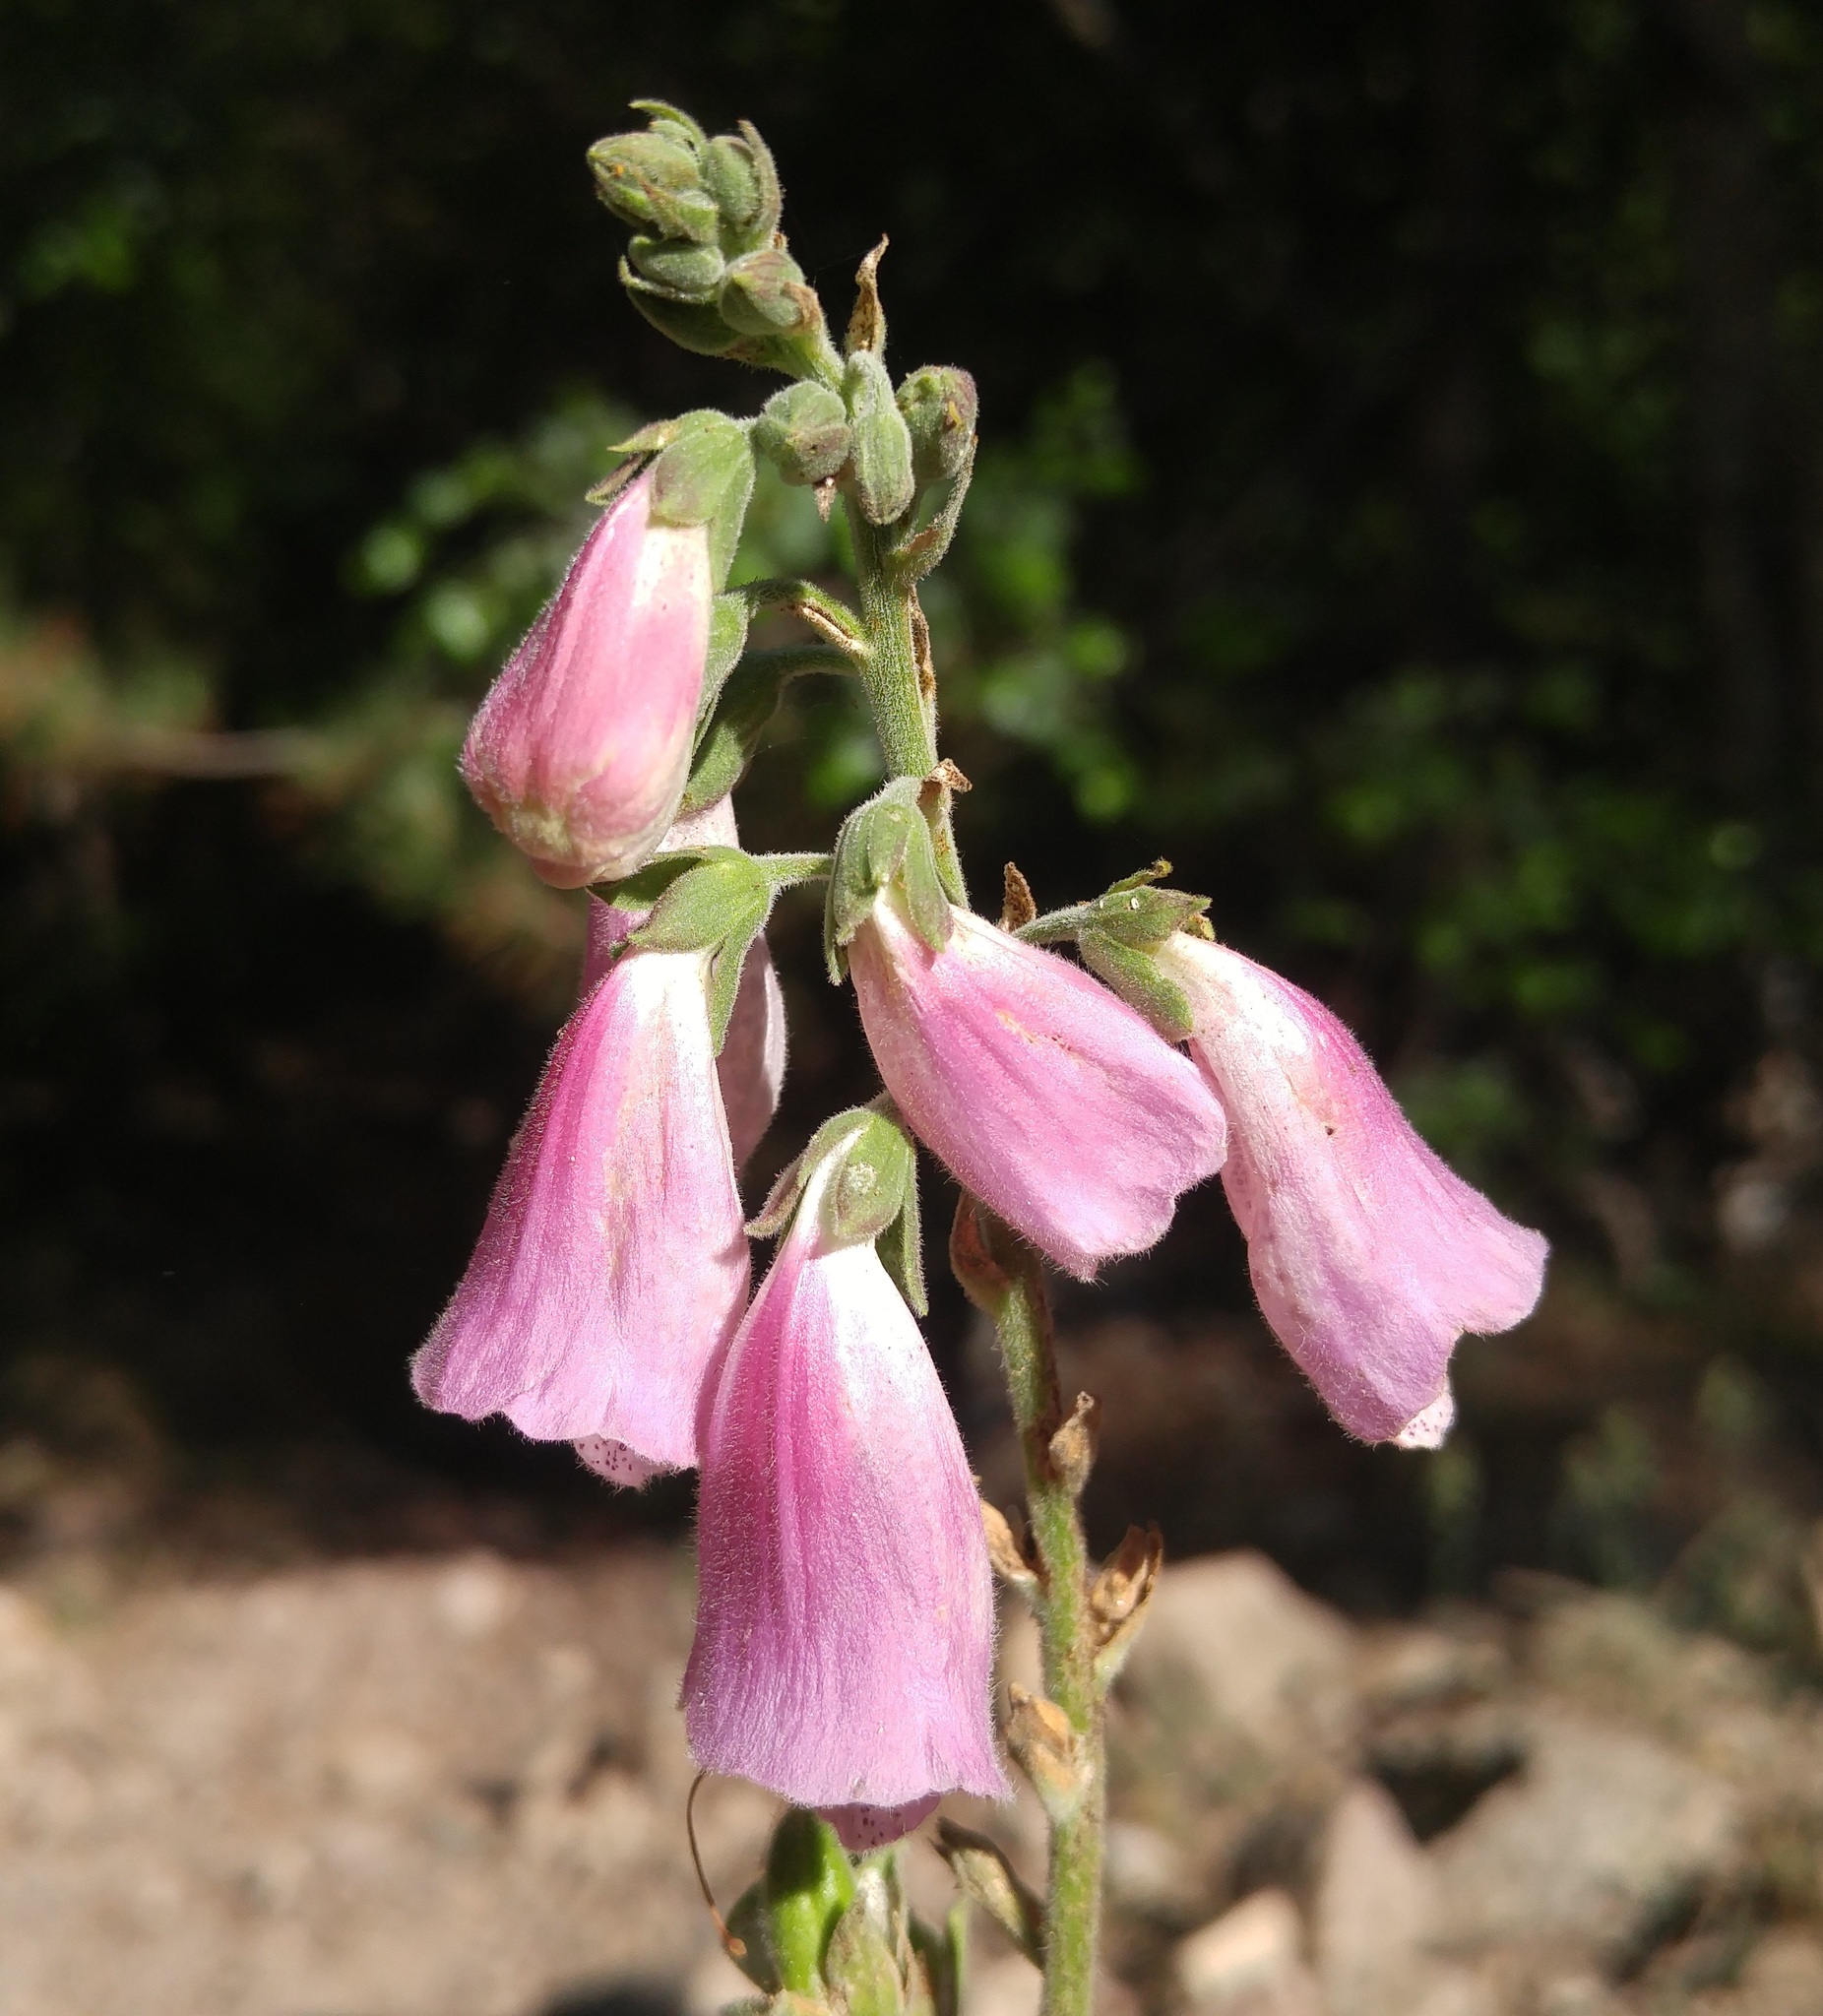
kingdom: Plantae
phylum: Tracheophyta
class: Magnoliopsida
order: Lamiales
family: Plantaginaceae
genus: Digitalis
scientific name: Digitalis purpurea
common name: Foxglove
